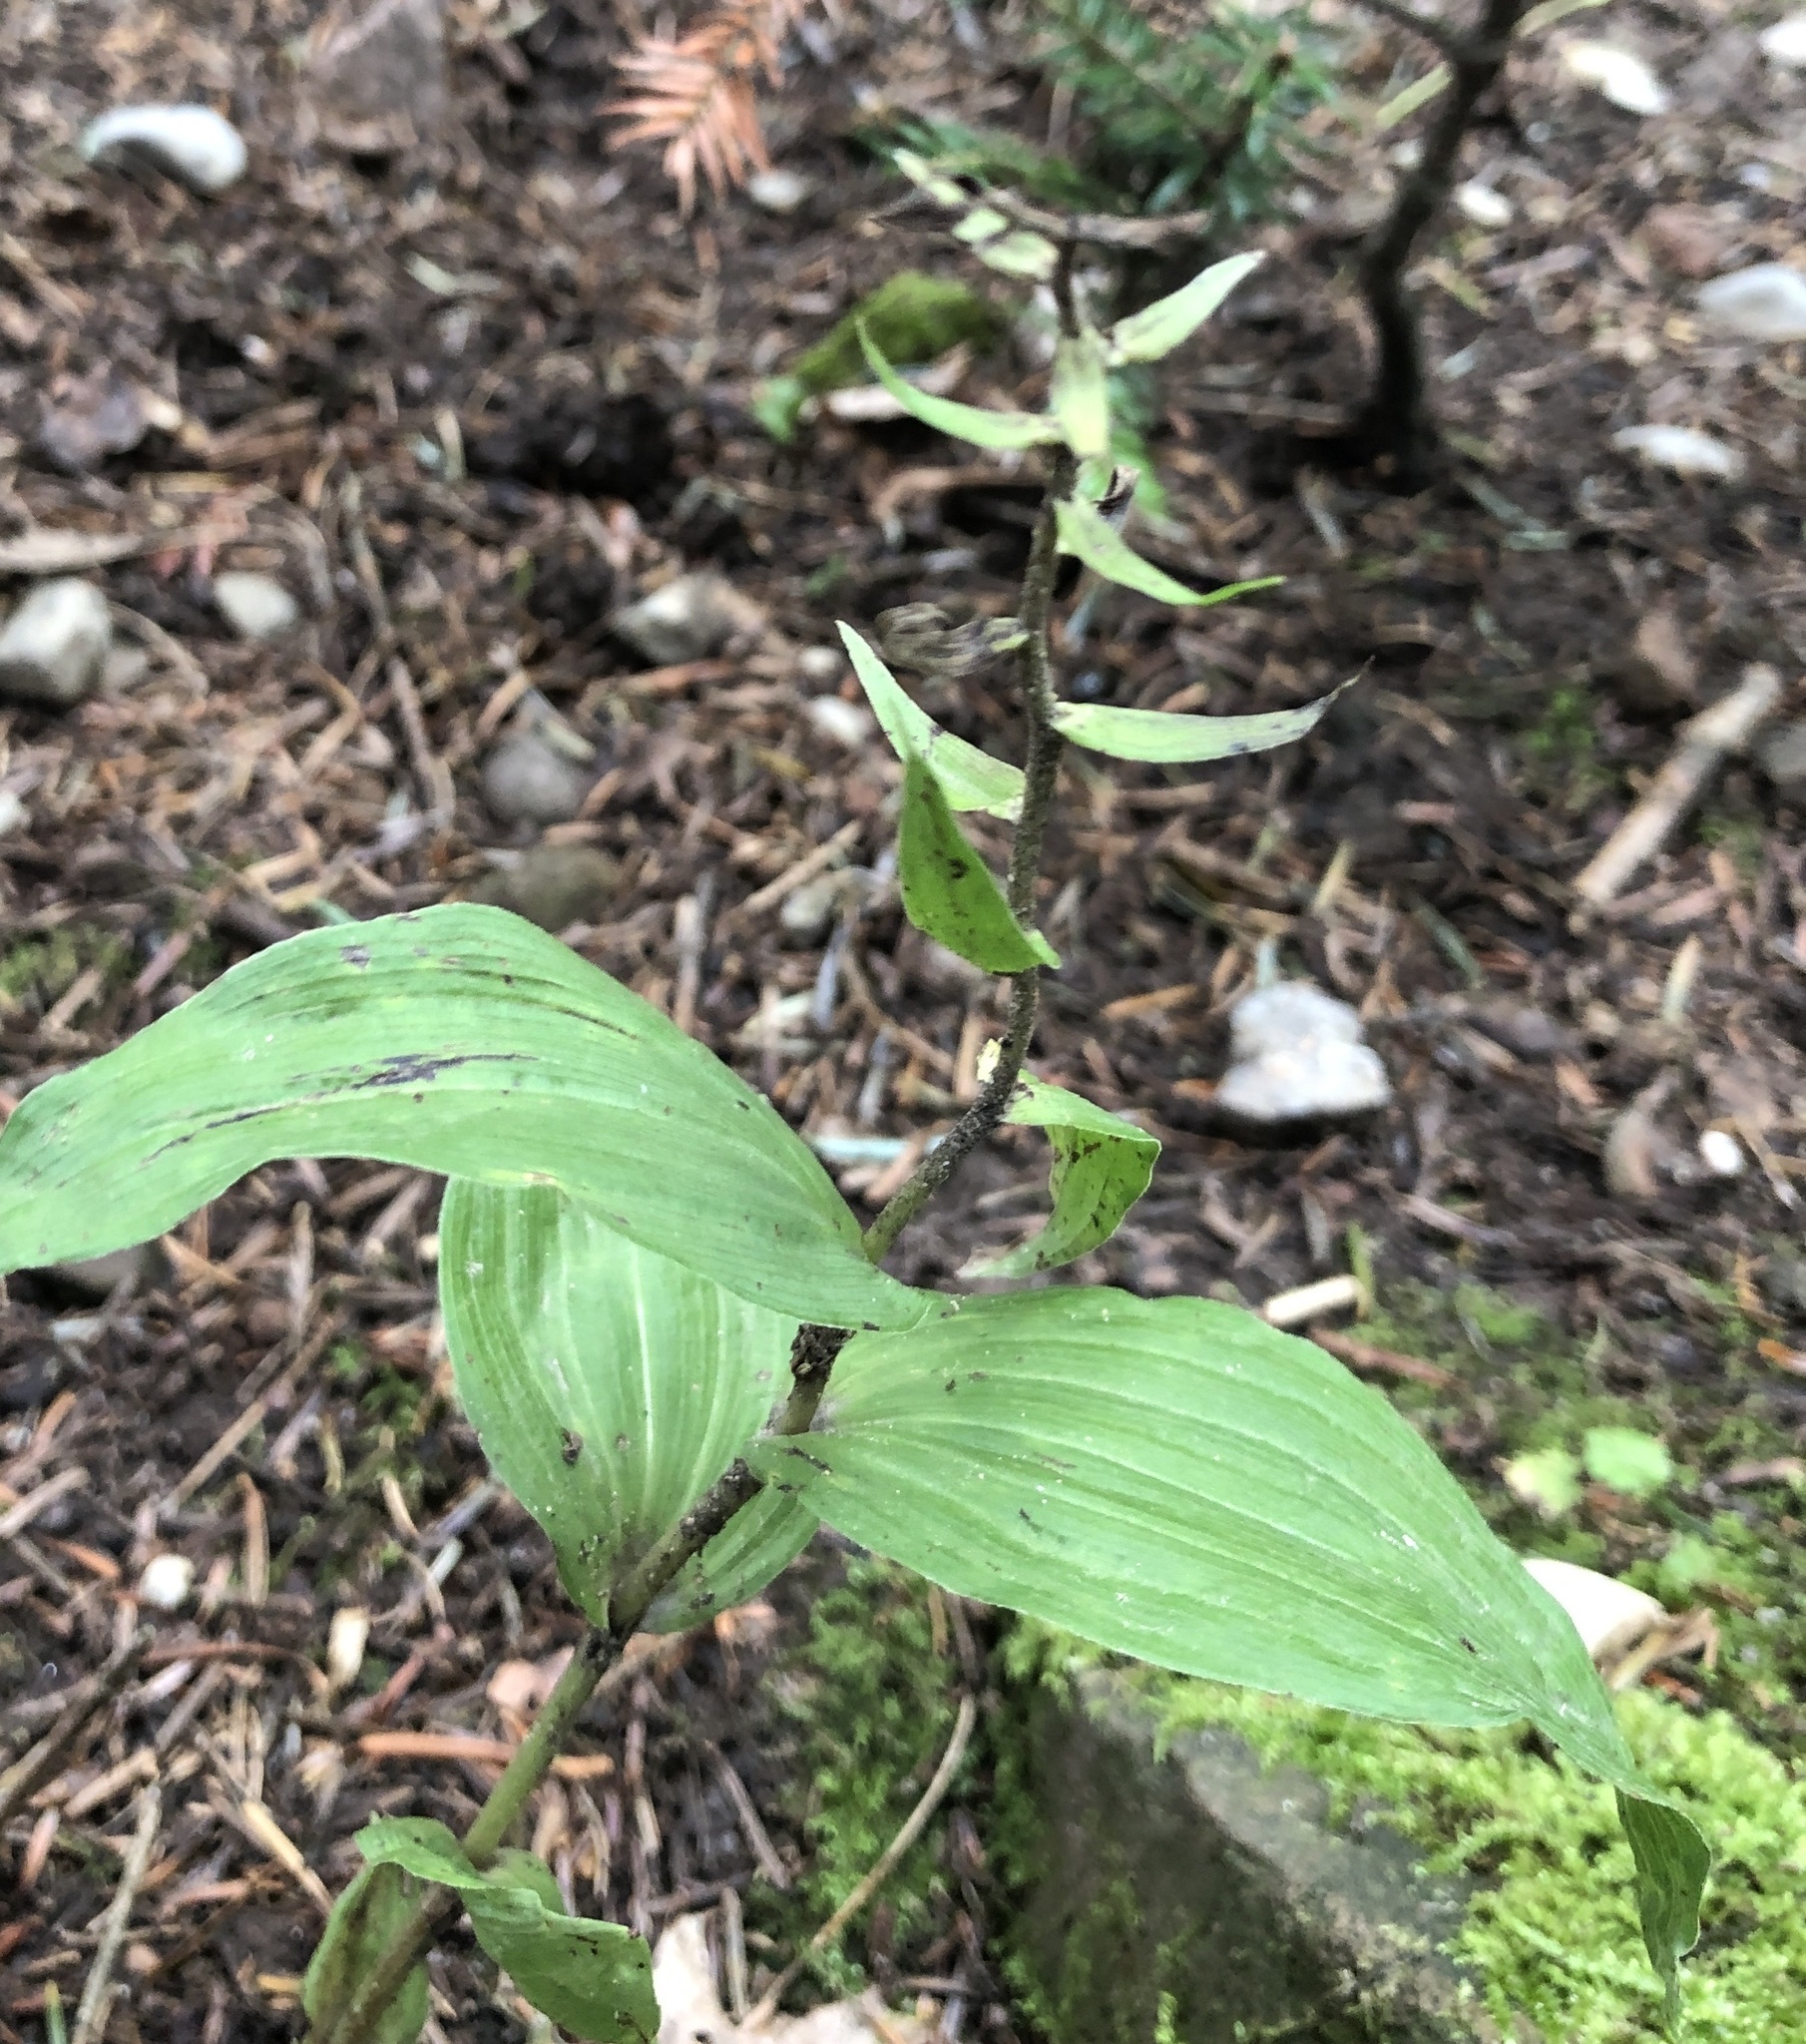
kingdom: Plantae
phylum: Tracheophyta
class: Liliopsida
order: Asparagales
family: Orchidaceae
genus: Epipactis
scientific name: Epipactis helleborine
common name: Broad-leaved helleborine
